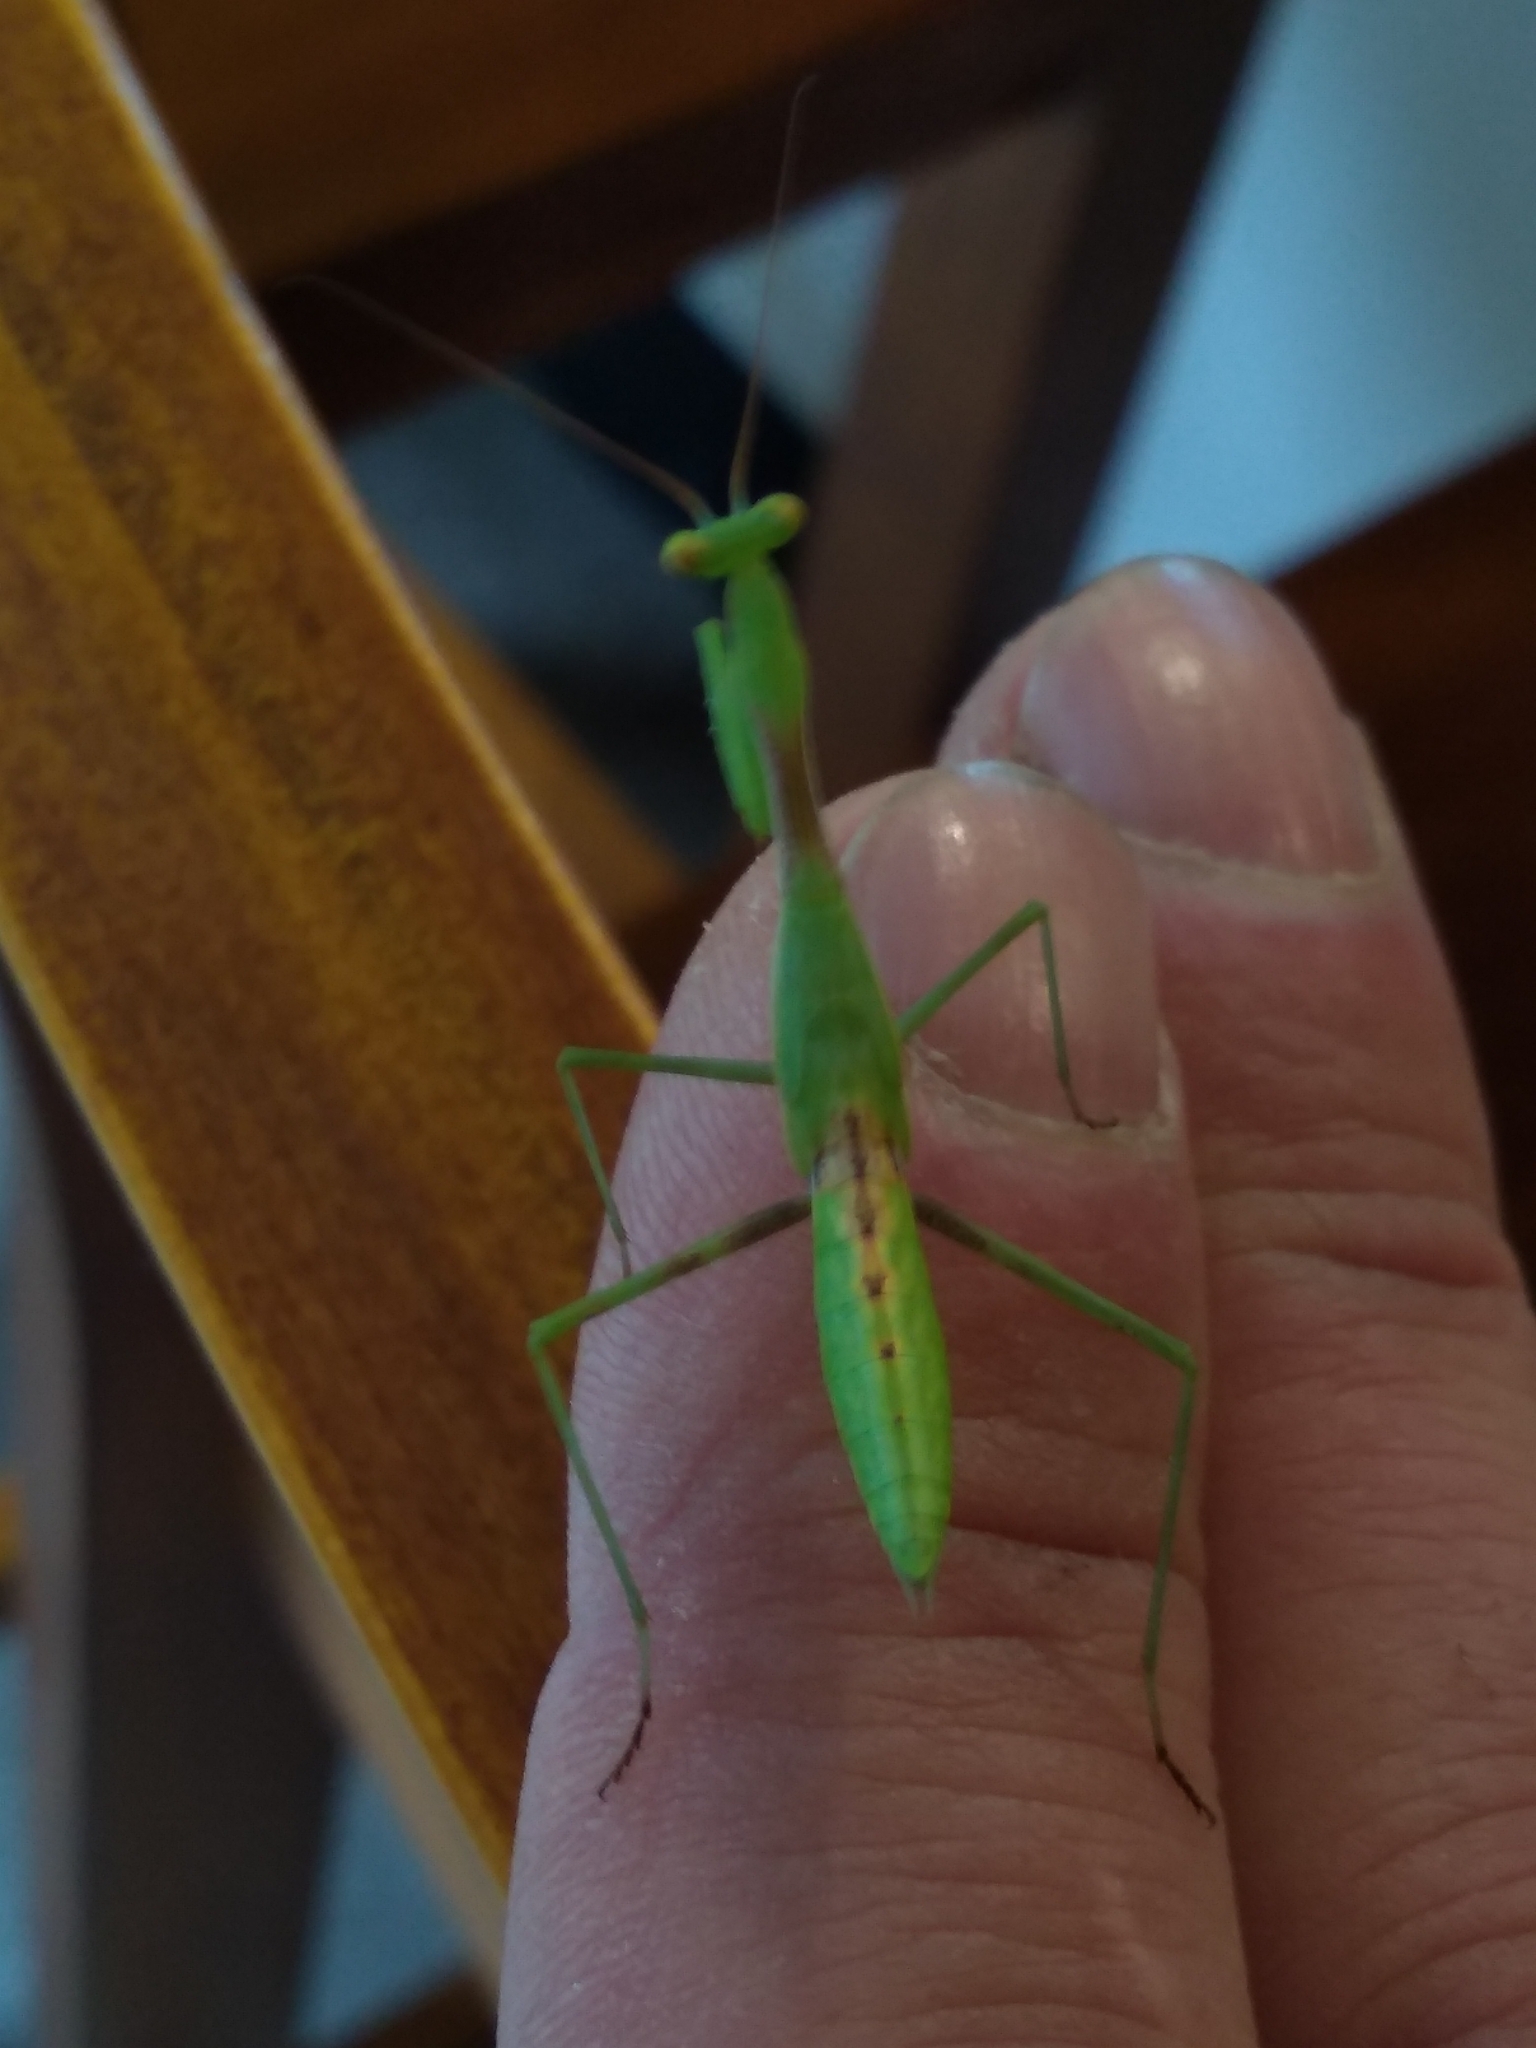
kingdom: Animalia
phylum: Arthropoda
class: Insecta
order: Mantodea
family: Miomantidae
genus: Miomantis
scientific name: Miomantis caffra
